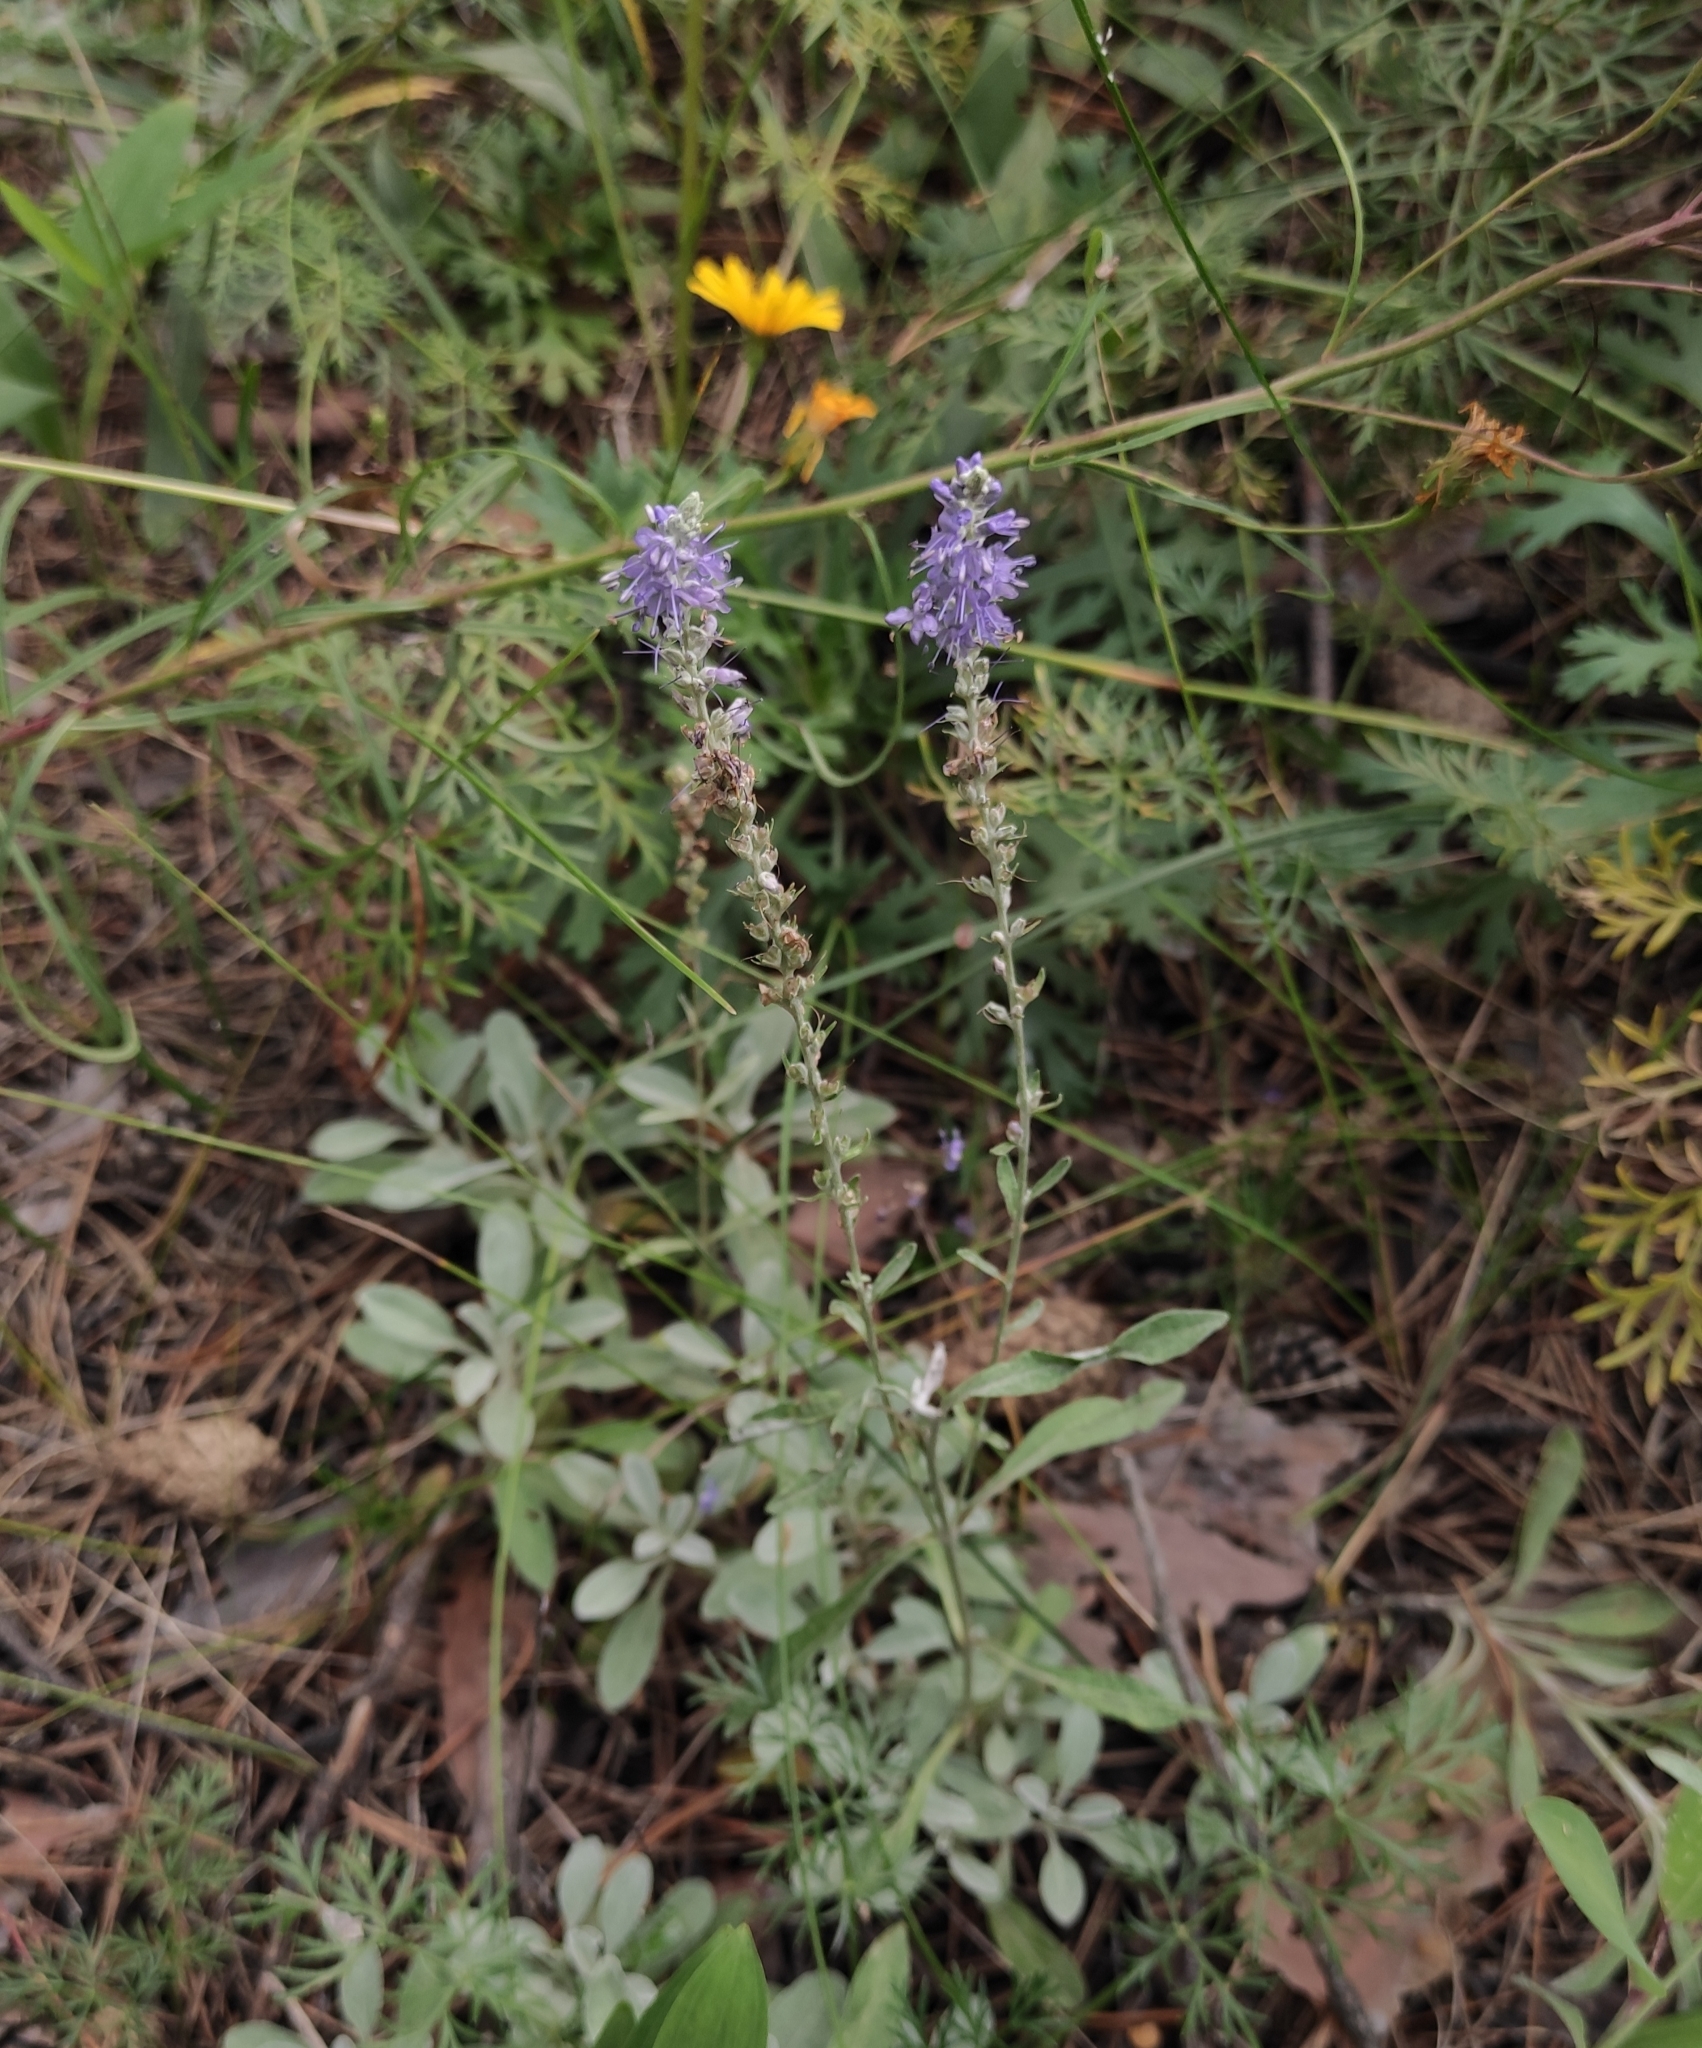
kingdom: Plantae
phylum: Tracheophyta
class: Magnoliopsida
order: Lamiales
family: Plantaginaceae
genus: Veronica
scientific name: Veronica incana
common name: Silver speedwell
